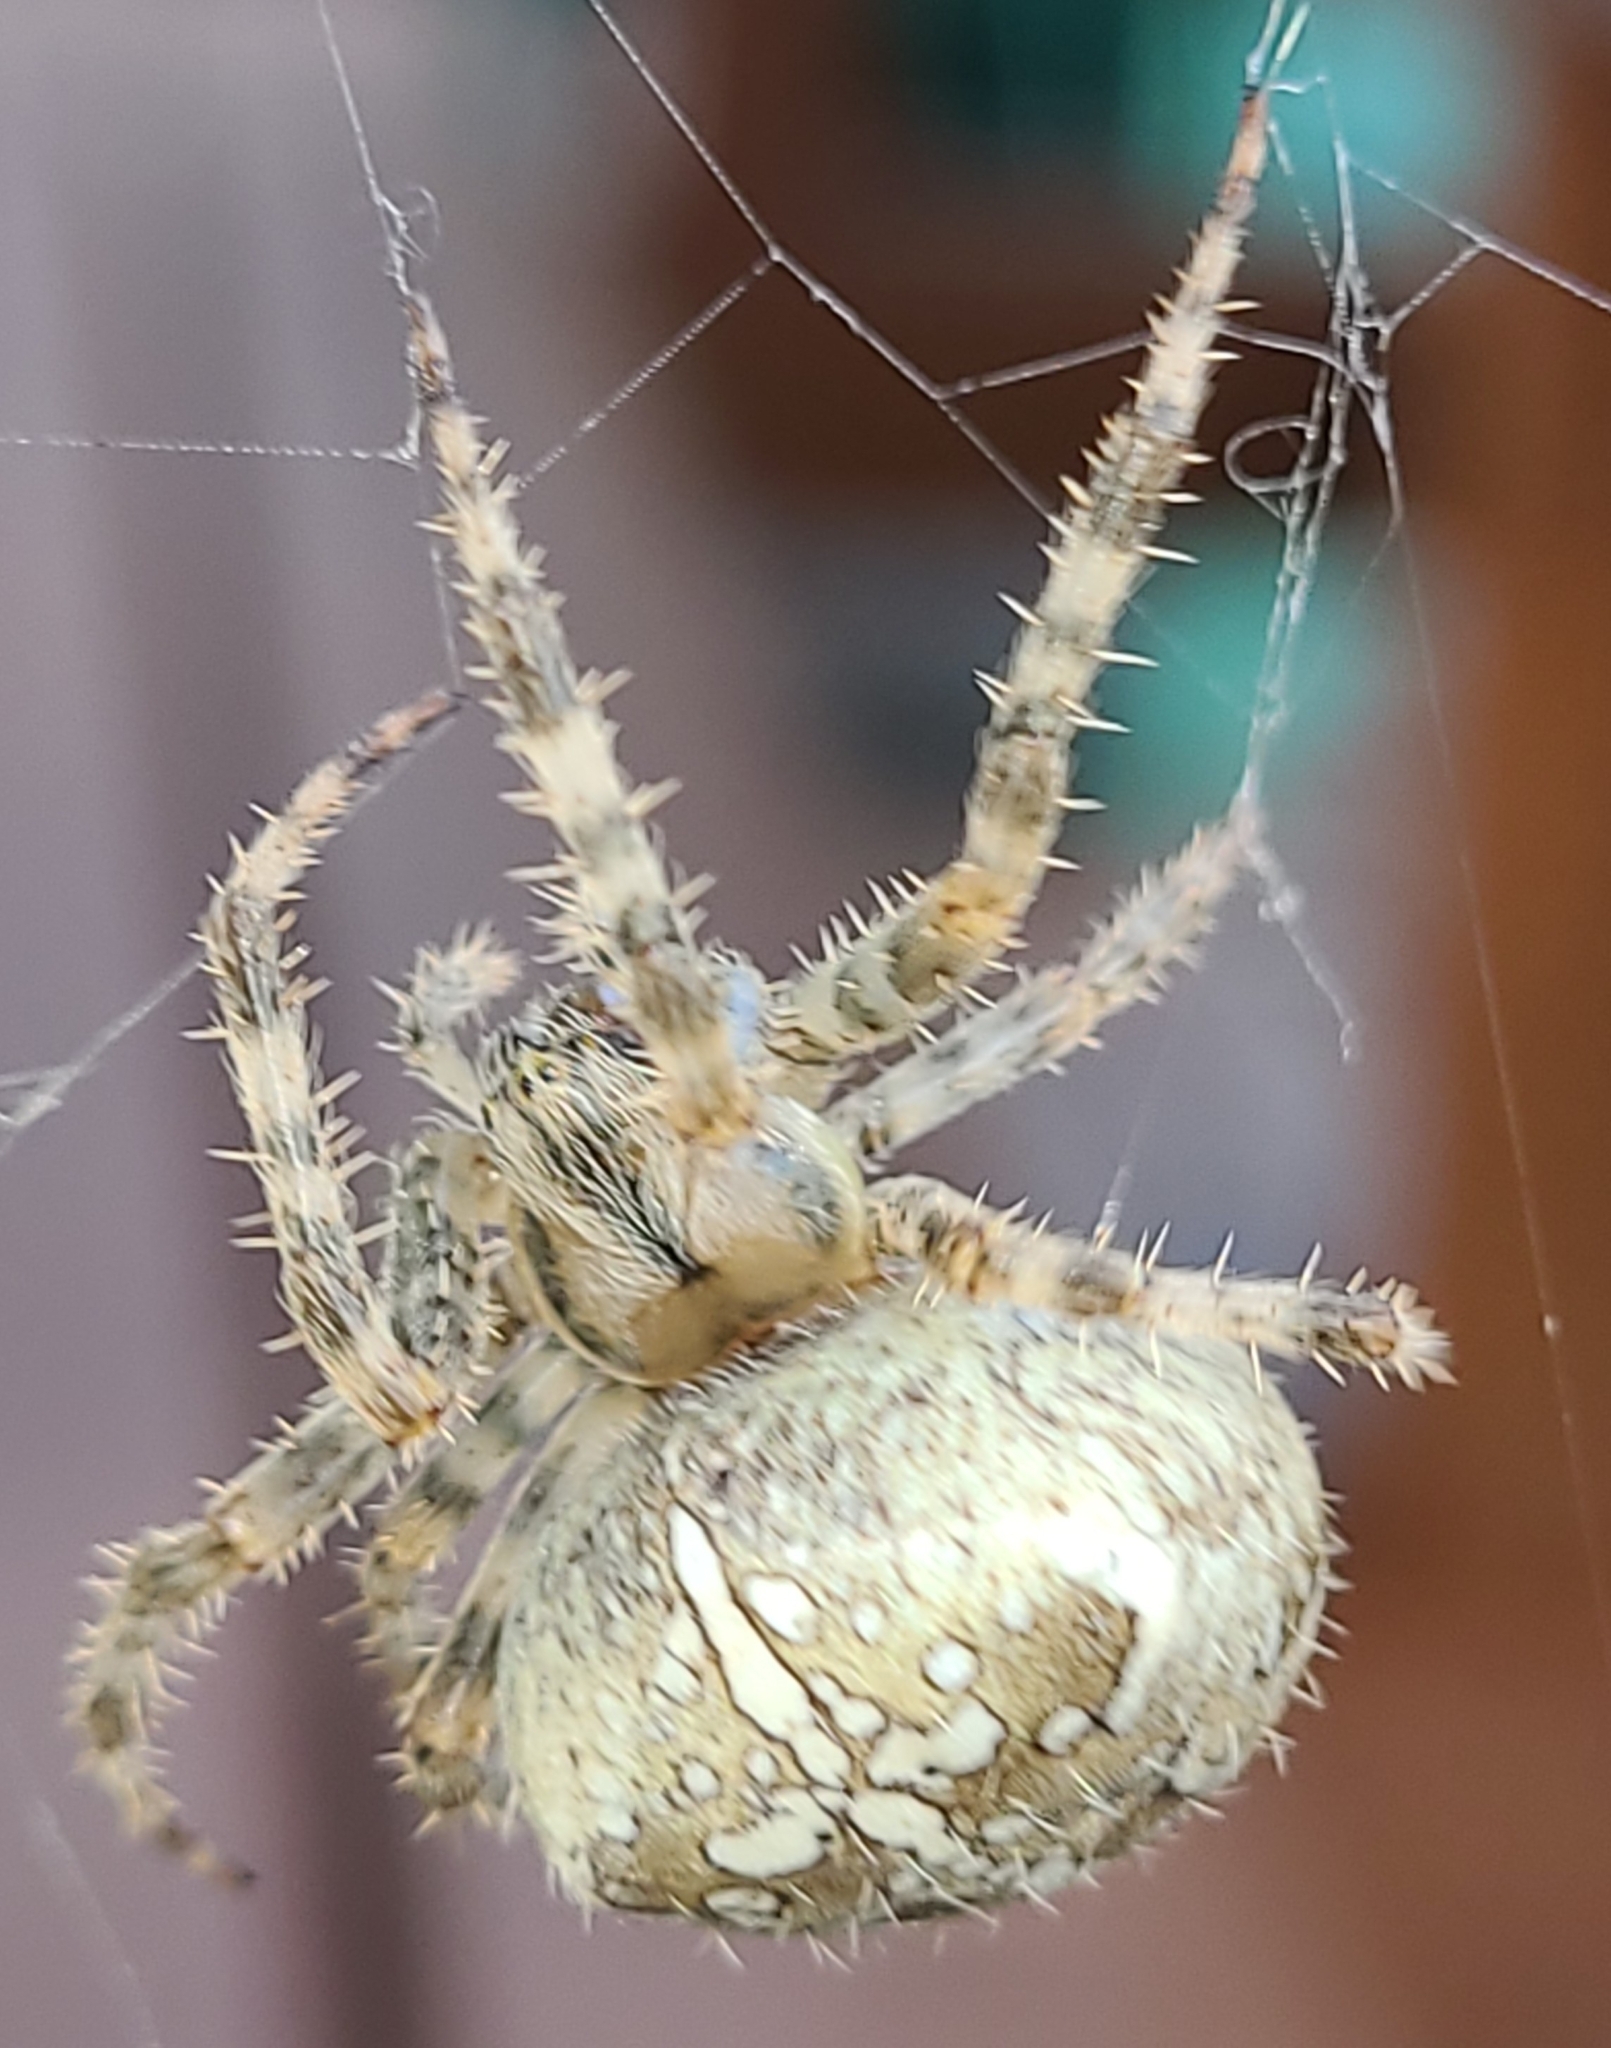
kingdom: Animalia
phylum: Arthropoda
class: Arachnida
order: Araneae
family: Araneidae
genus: Araneus
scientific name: Araneus diadematus
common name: Cross orbweaver
